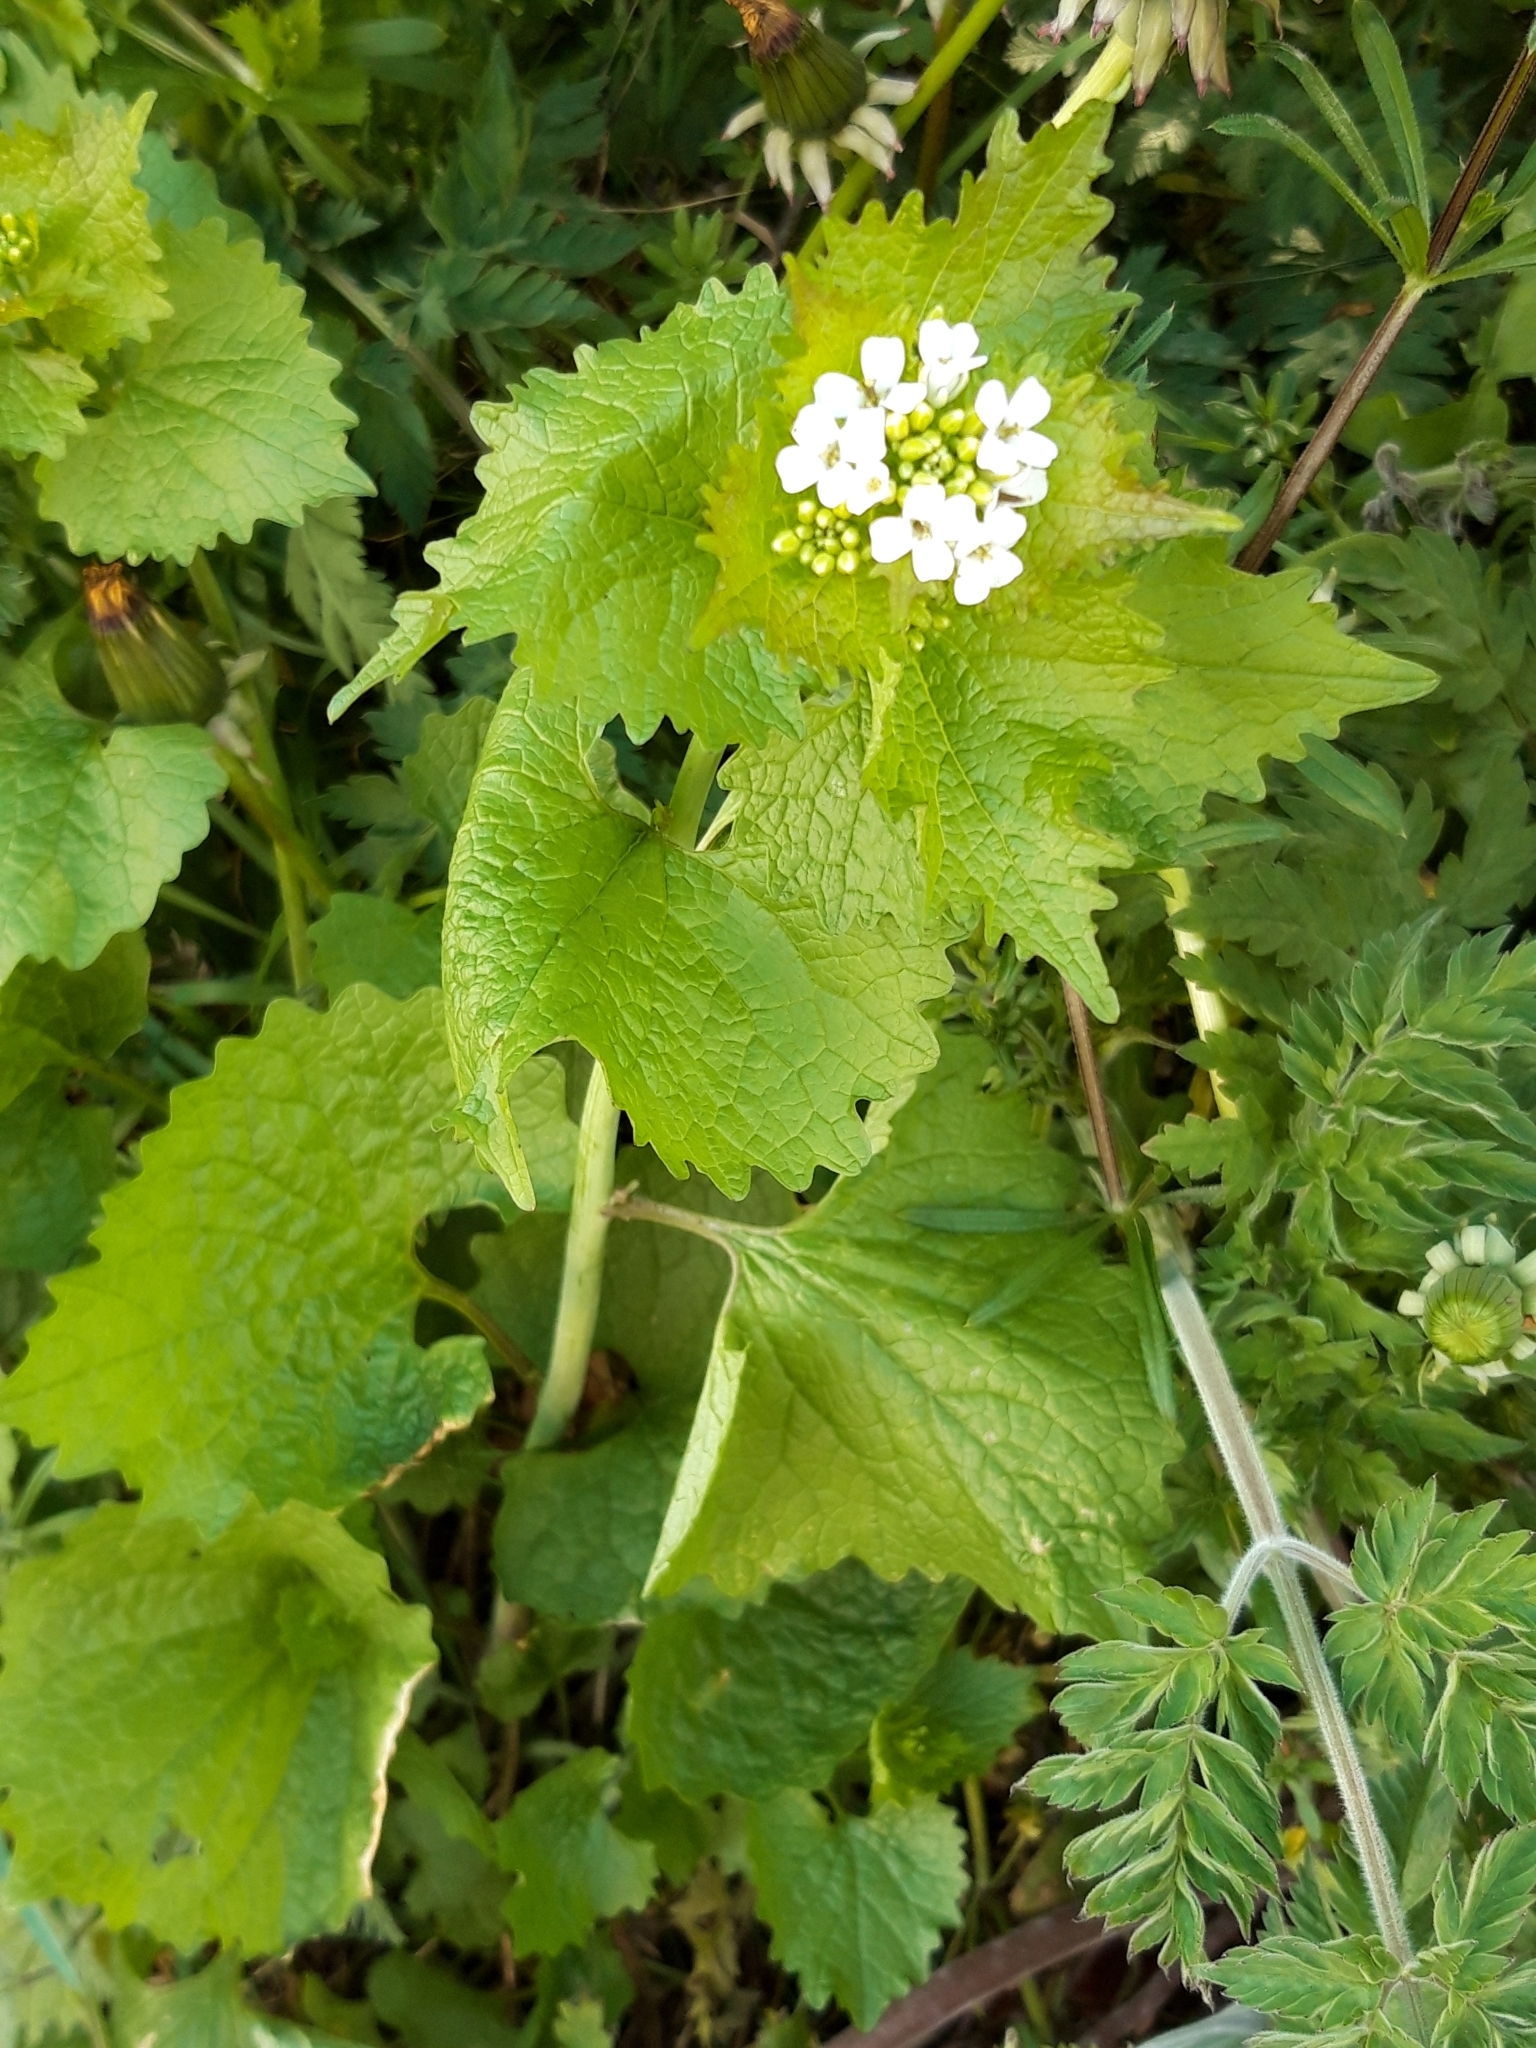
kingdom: Plantae
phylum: Tracheophyta
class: Magnoliopsida
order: Brassicales
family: Brassicaceae
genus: Alliaria
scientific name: Alliaria petiolata
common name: Garlic mustard
